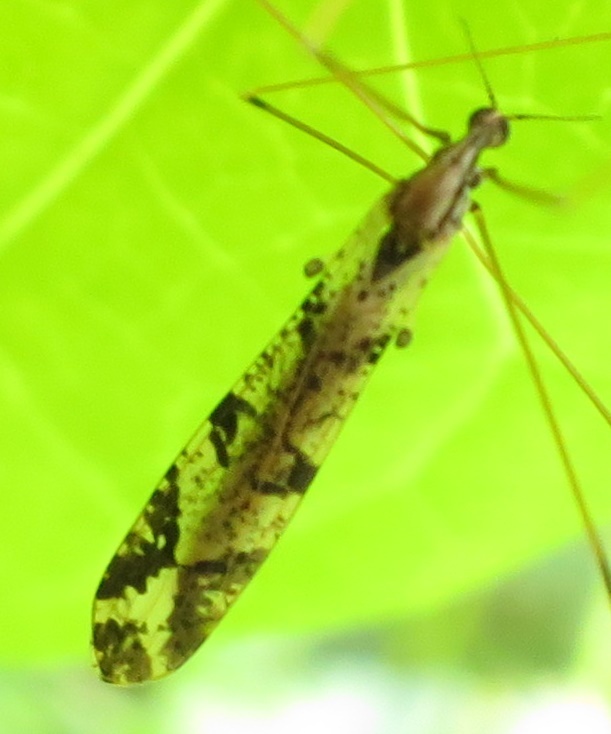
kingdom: Animalia
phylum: Arthropoda
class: Insecta
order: Diptera
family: Limoniidae
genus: Discobola
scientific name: Discobola striata
